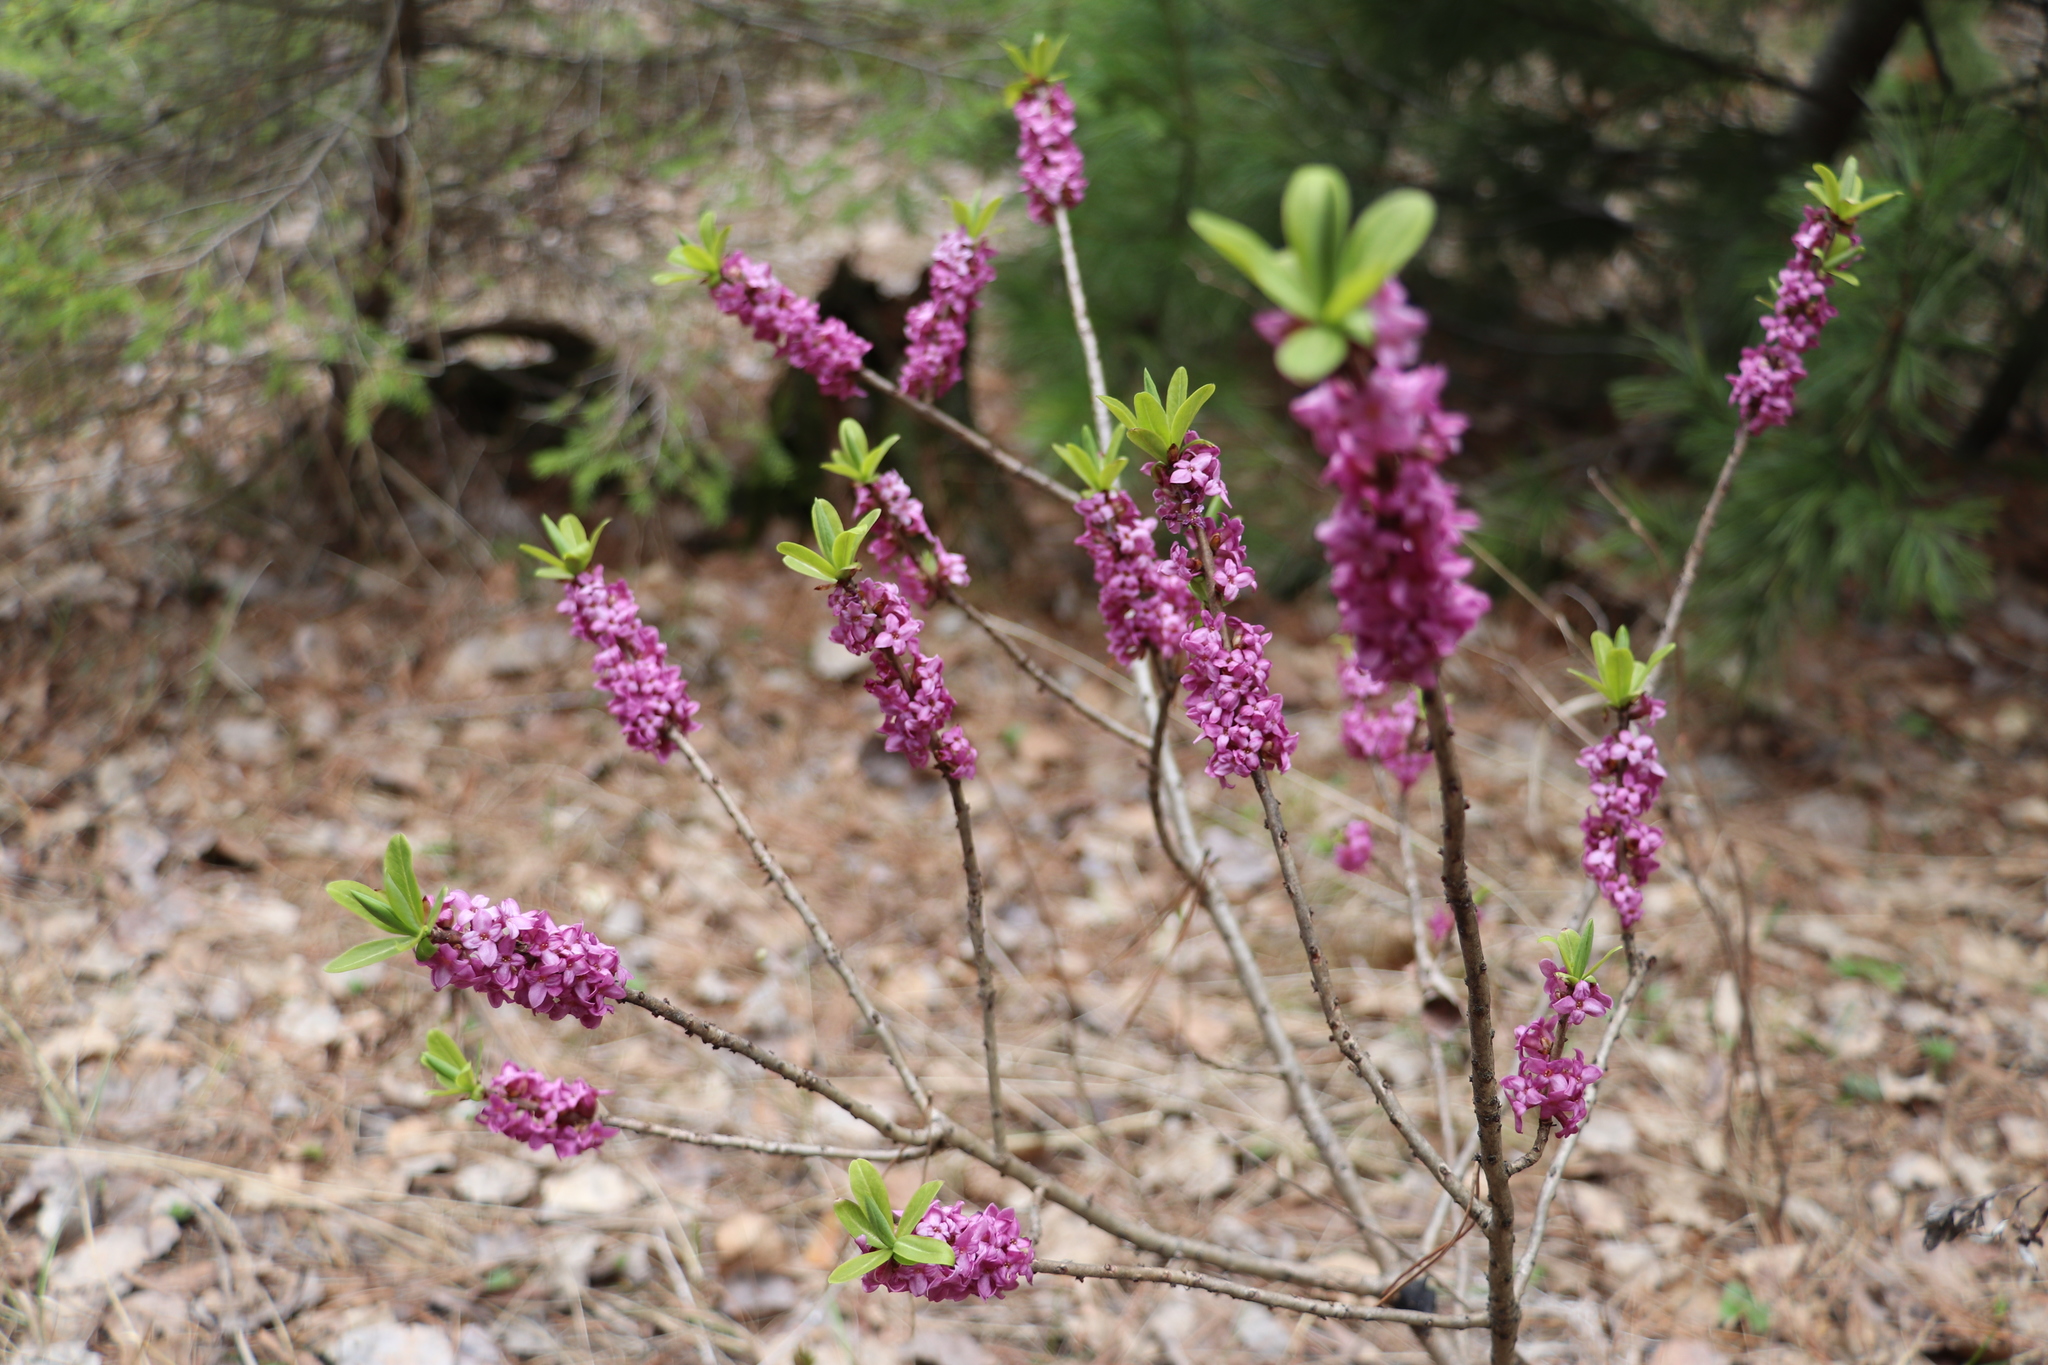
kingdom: Plantae
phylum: Tracheophyta
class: Magnoliopsida
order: Malvales
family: Thymelaeaceae
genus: Daphne
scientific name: Daphne mezereum
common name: Mezereon
